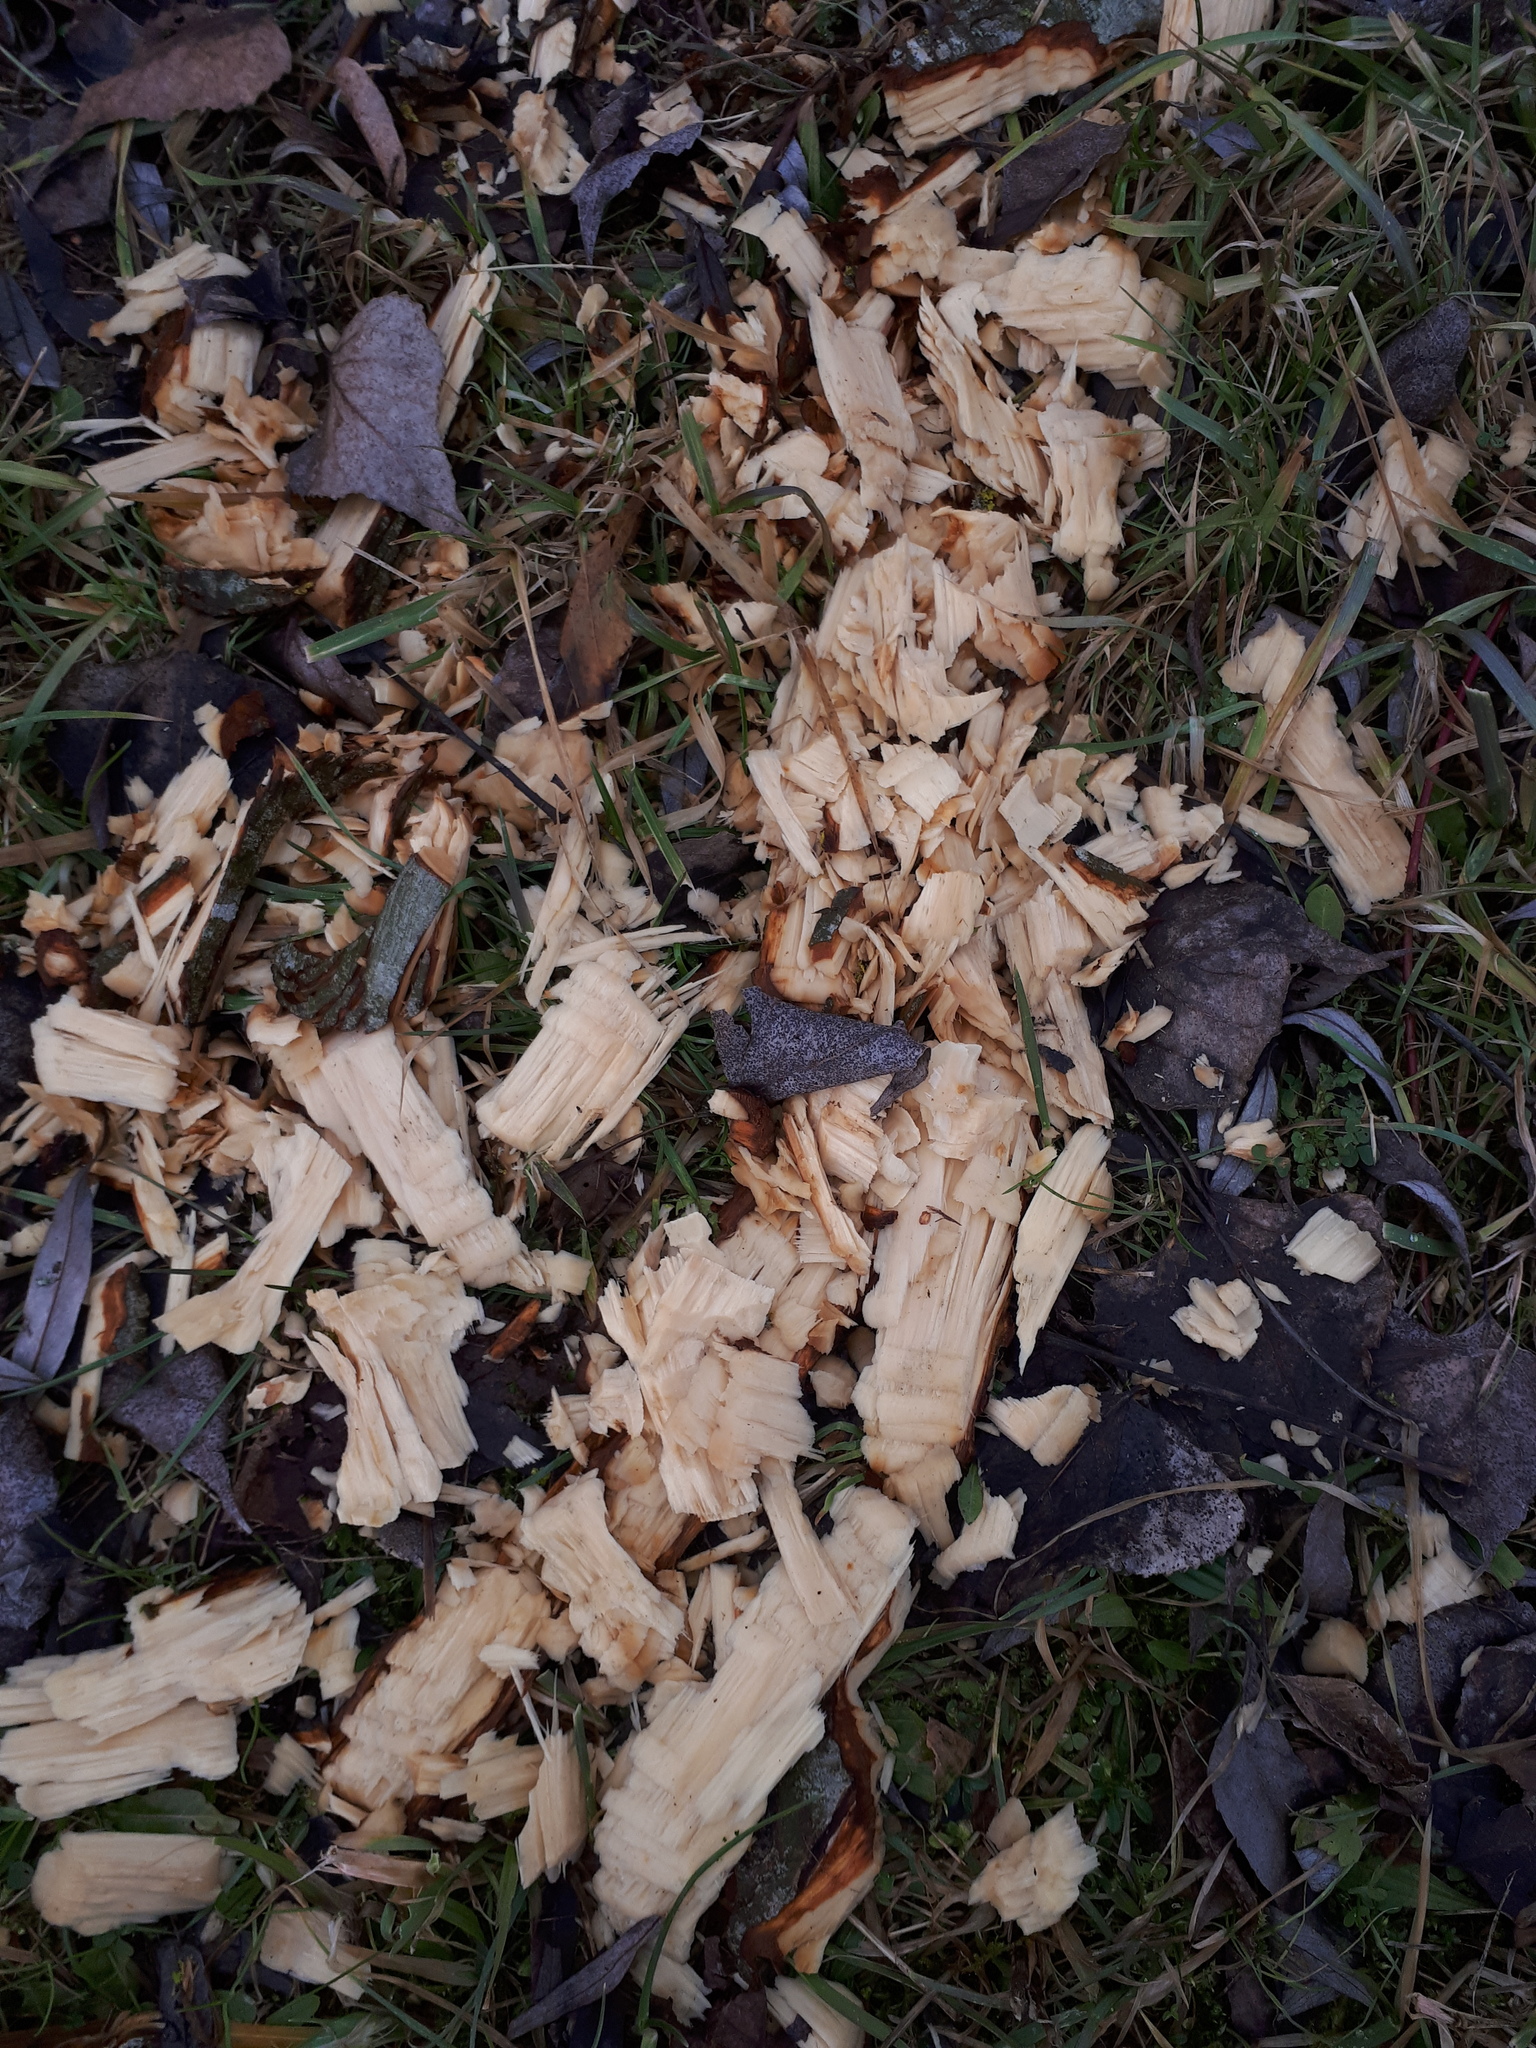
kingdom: Animalia
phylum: Chordata
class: Mammalia
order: Rodentia
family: Castoridae
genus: Castor
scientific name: Castor fiber
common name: Eurasian beaver
